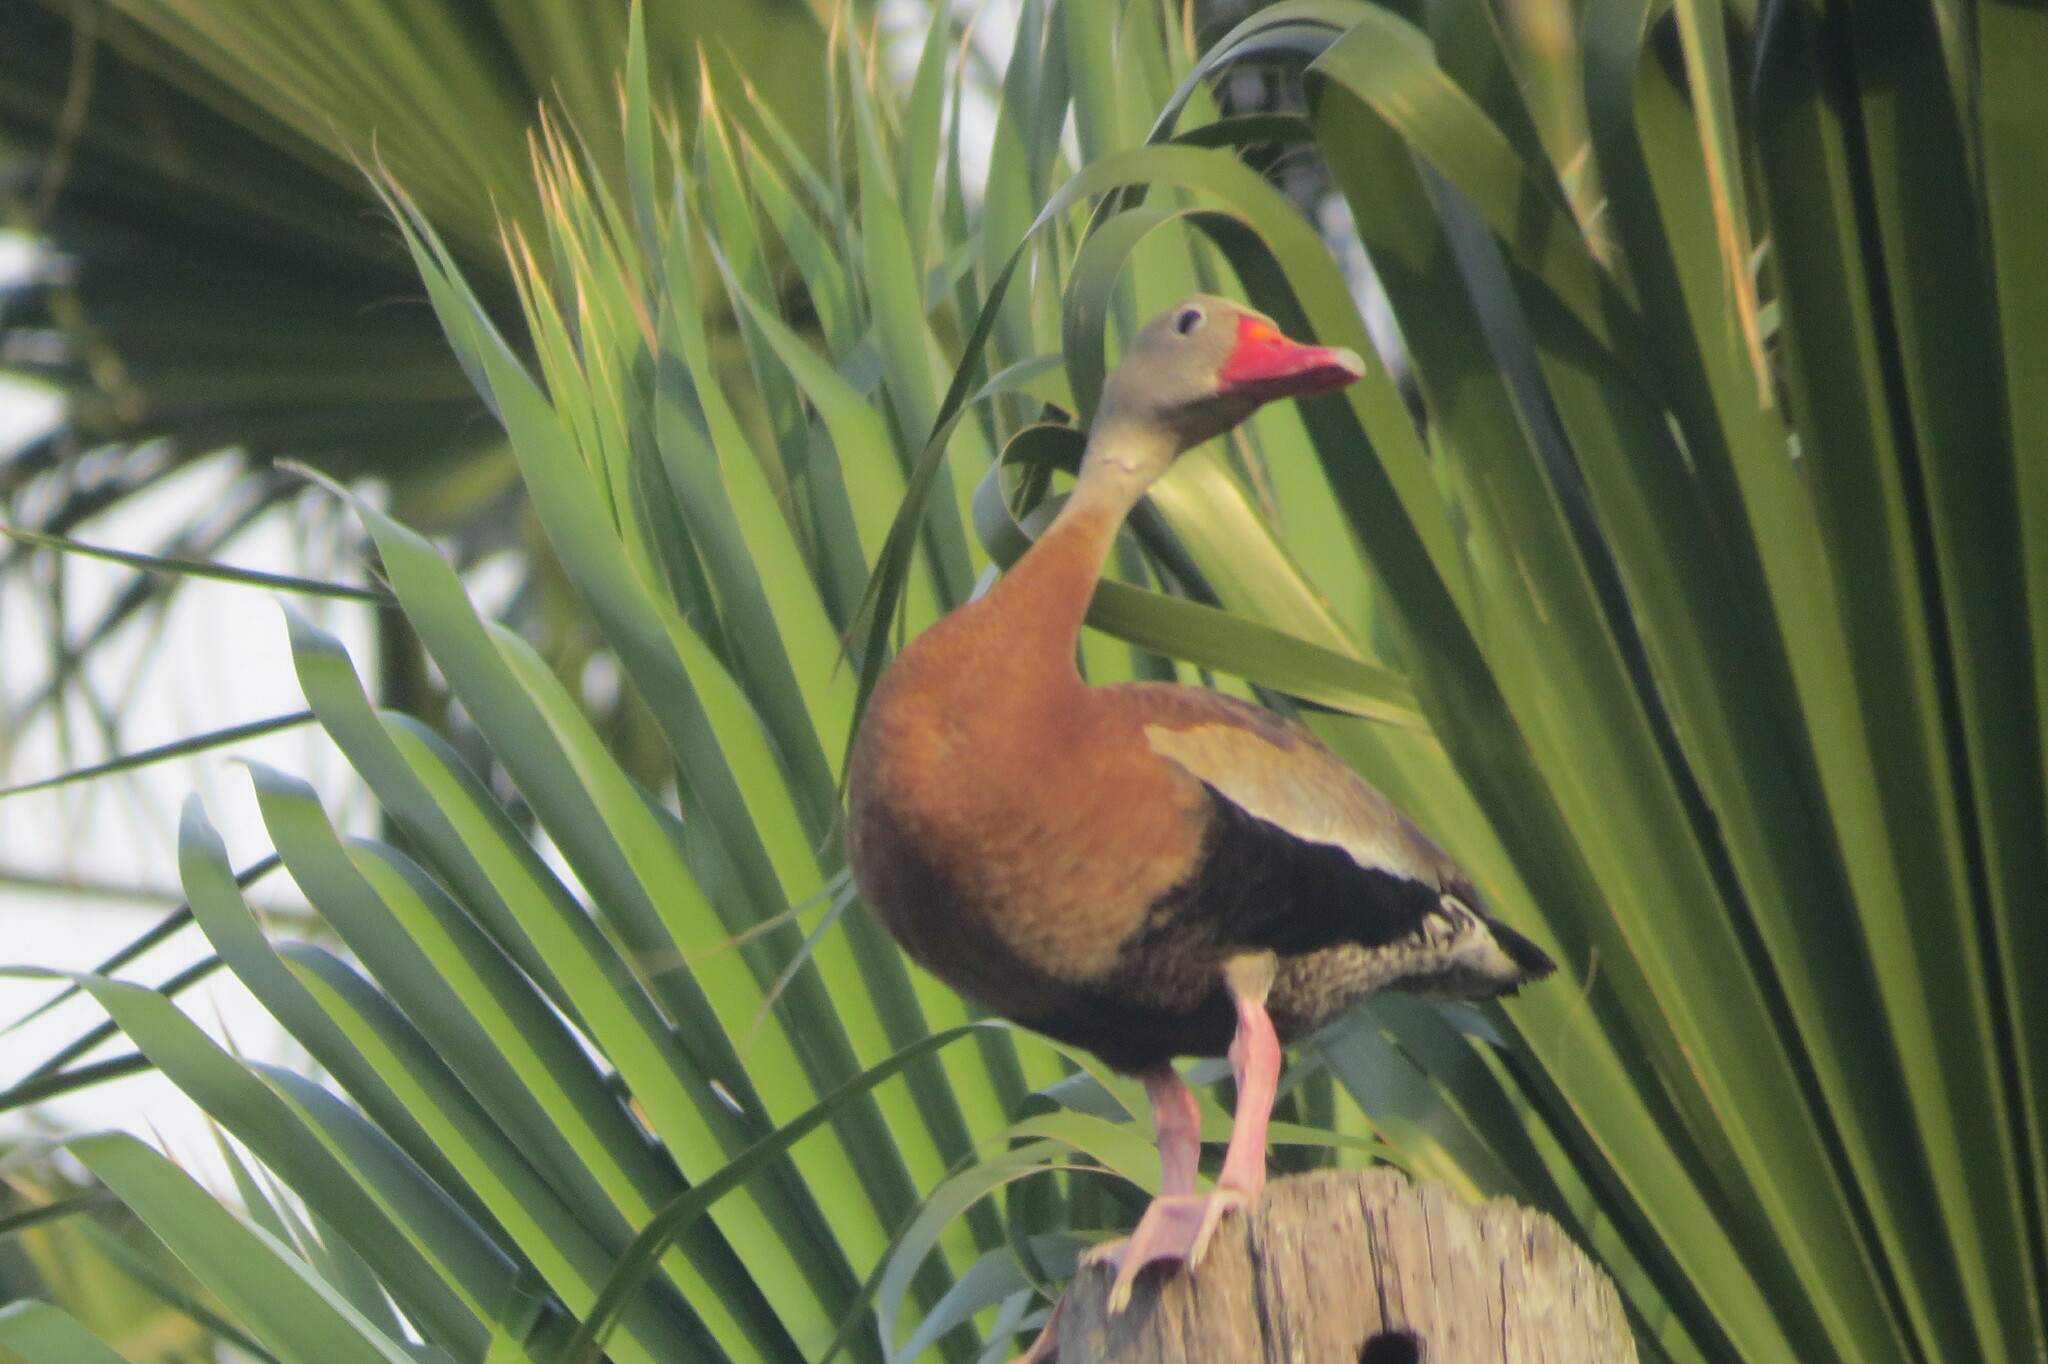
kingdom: Animalia
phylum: Chordata
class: Aves
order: Anseriformes
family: Anatidae
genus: Dendrocygna
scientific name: Dendrocygna autumnalis
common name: Black-bellied whistling duck
